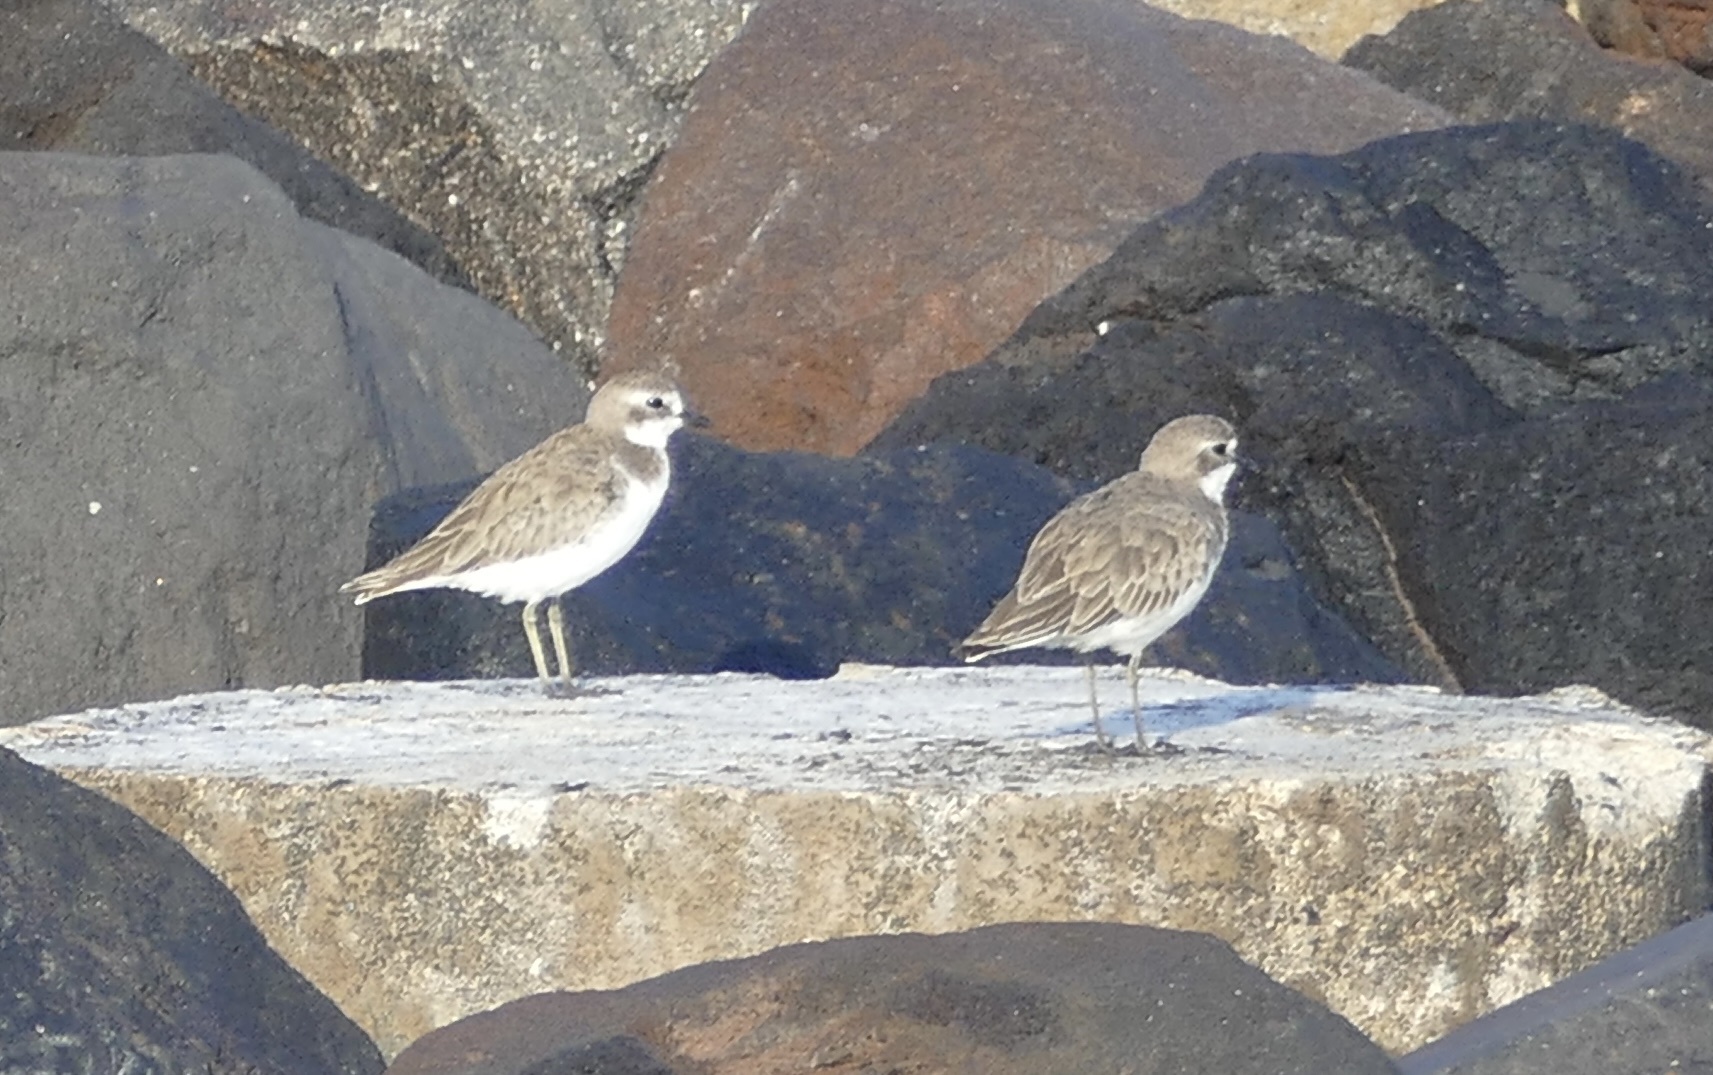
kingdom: Animalia
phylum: Chordata
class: Aves
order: Charadriiformes
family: Charadriidae
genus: Charadrius
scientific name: Charadrius leschenaultii
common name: Greater sand plover
